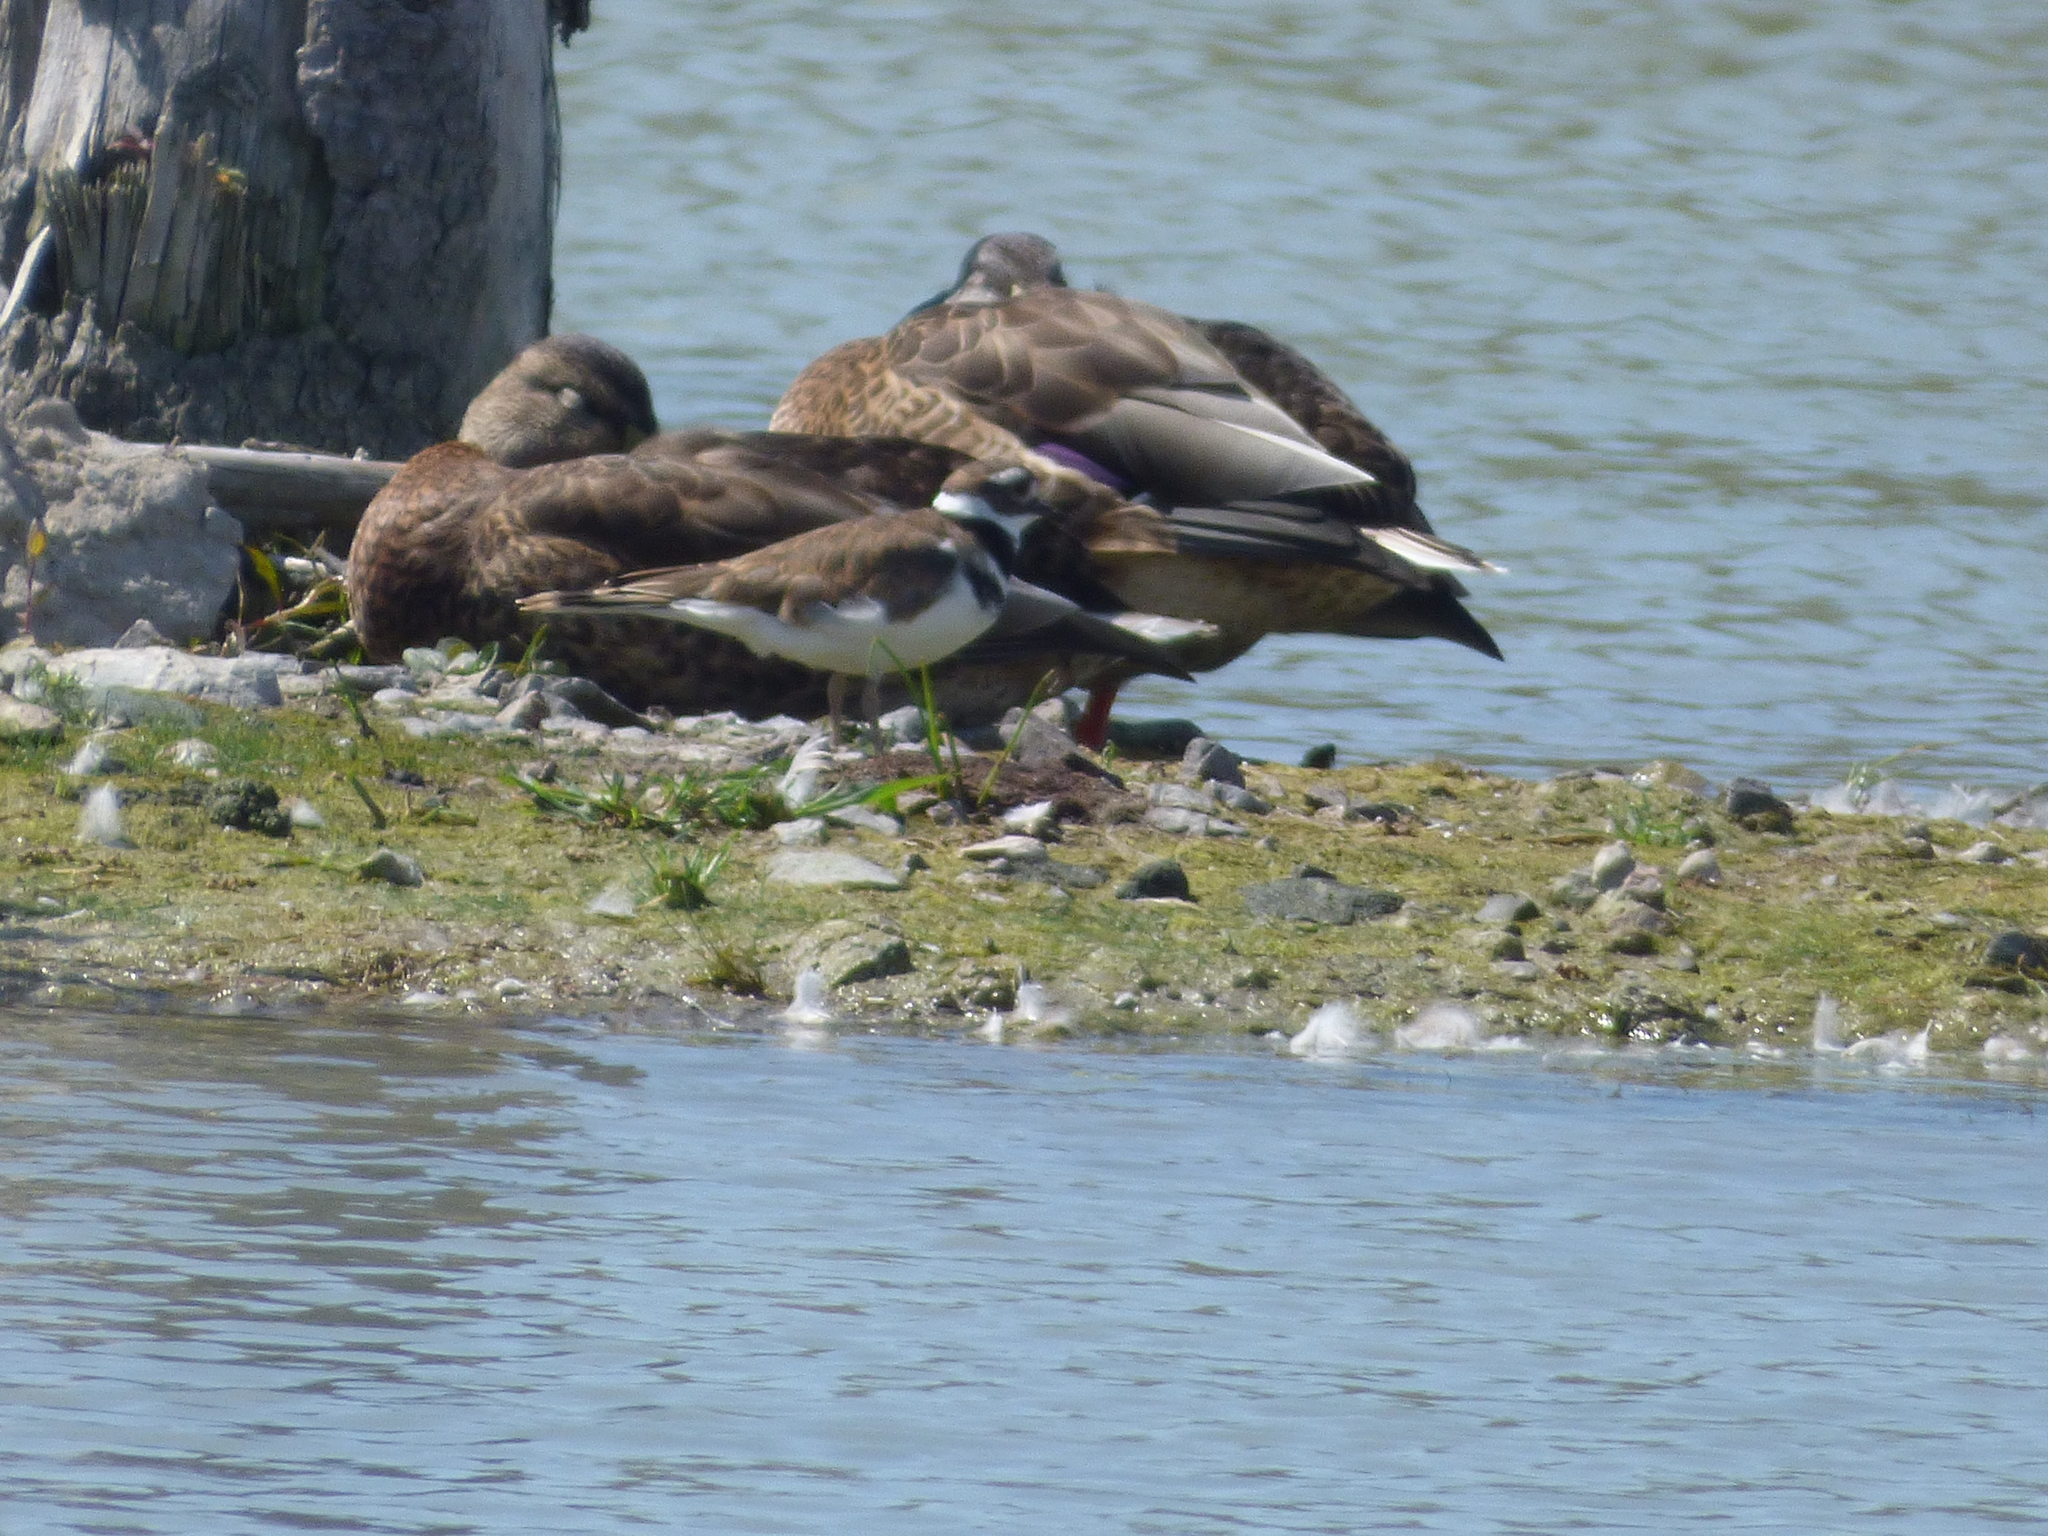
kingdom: Animalia
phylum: Chordata
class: Aves
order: Charadriiformes
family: Charadriidae
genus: Charadrius
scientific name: Charadrius vociferus
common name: Killdeer
